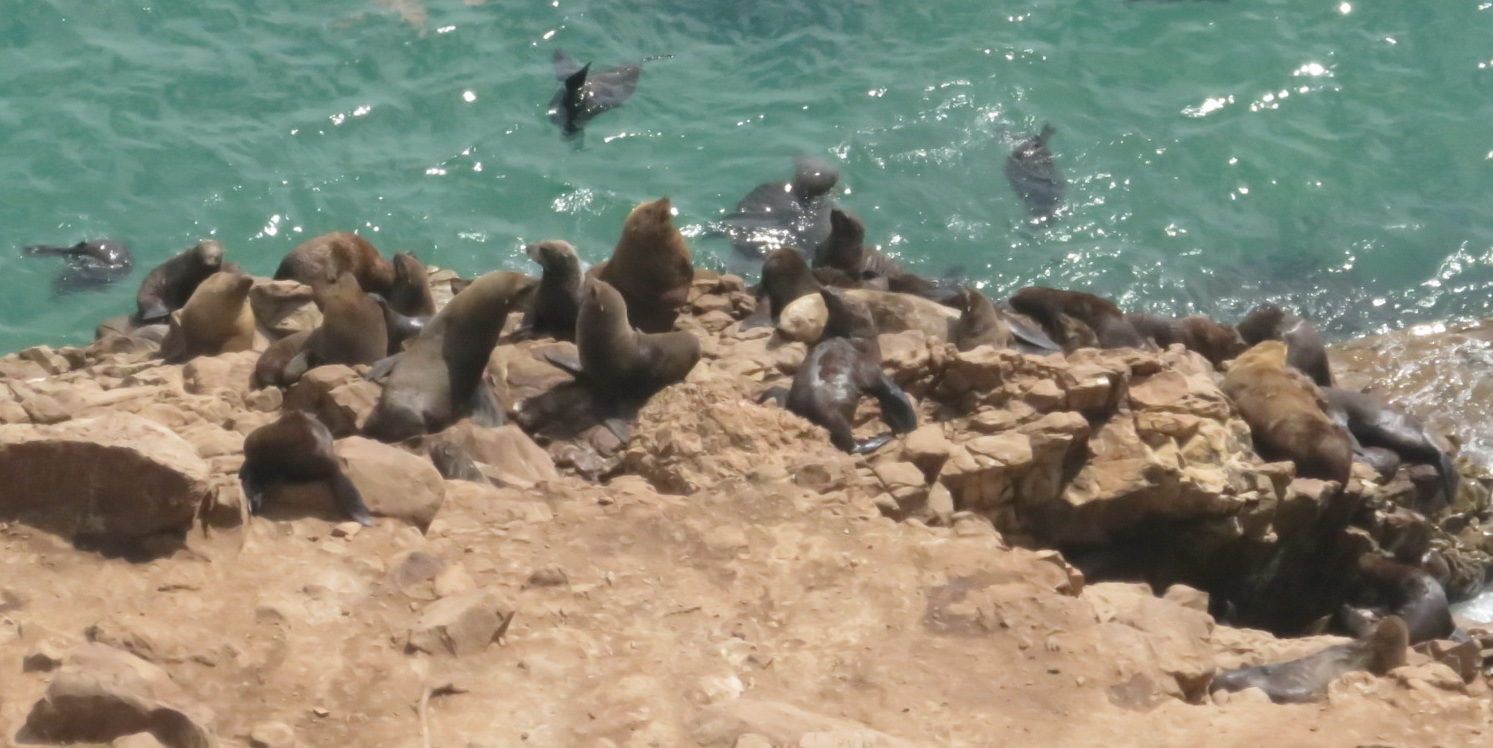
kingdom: Animalia
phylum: Chordata
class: Mammalia
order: Carnivora
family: Otariidae
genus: Arctocephalus
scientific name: Arctocephalus pusillus
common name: Brown fur seal
